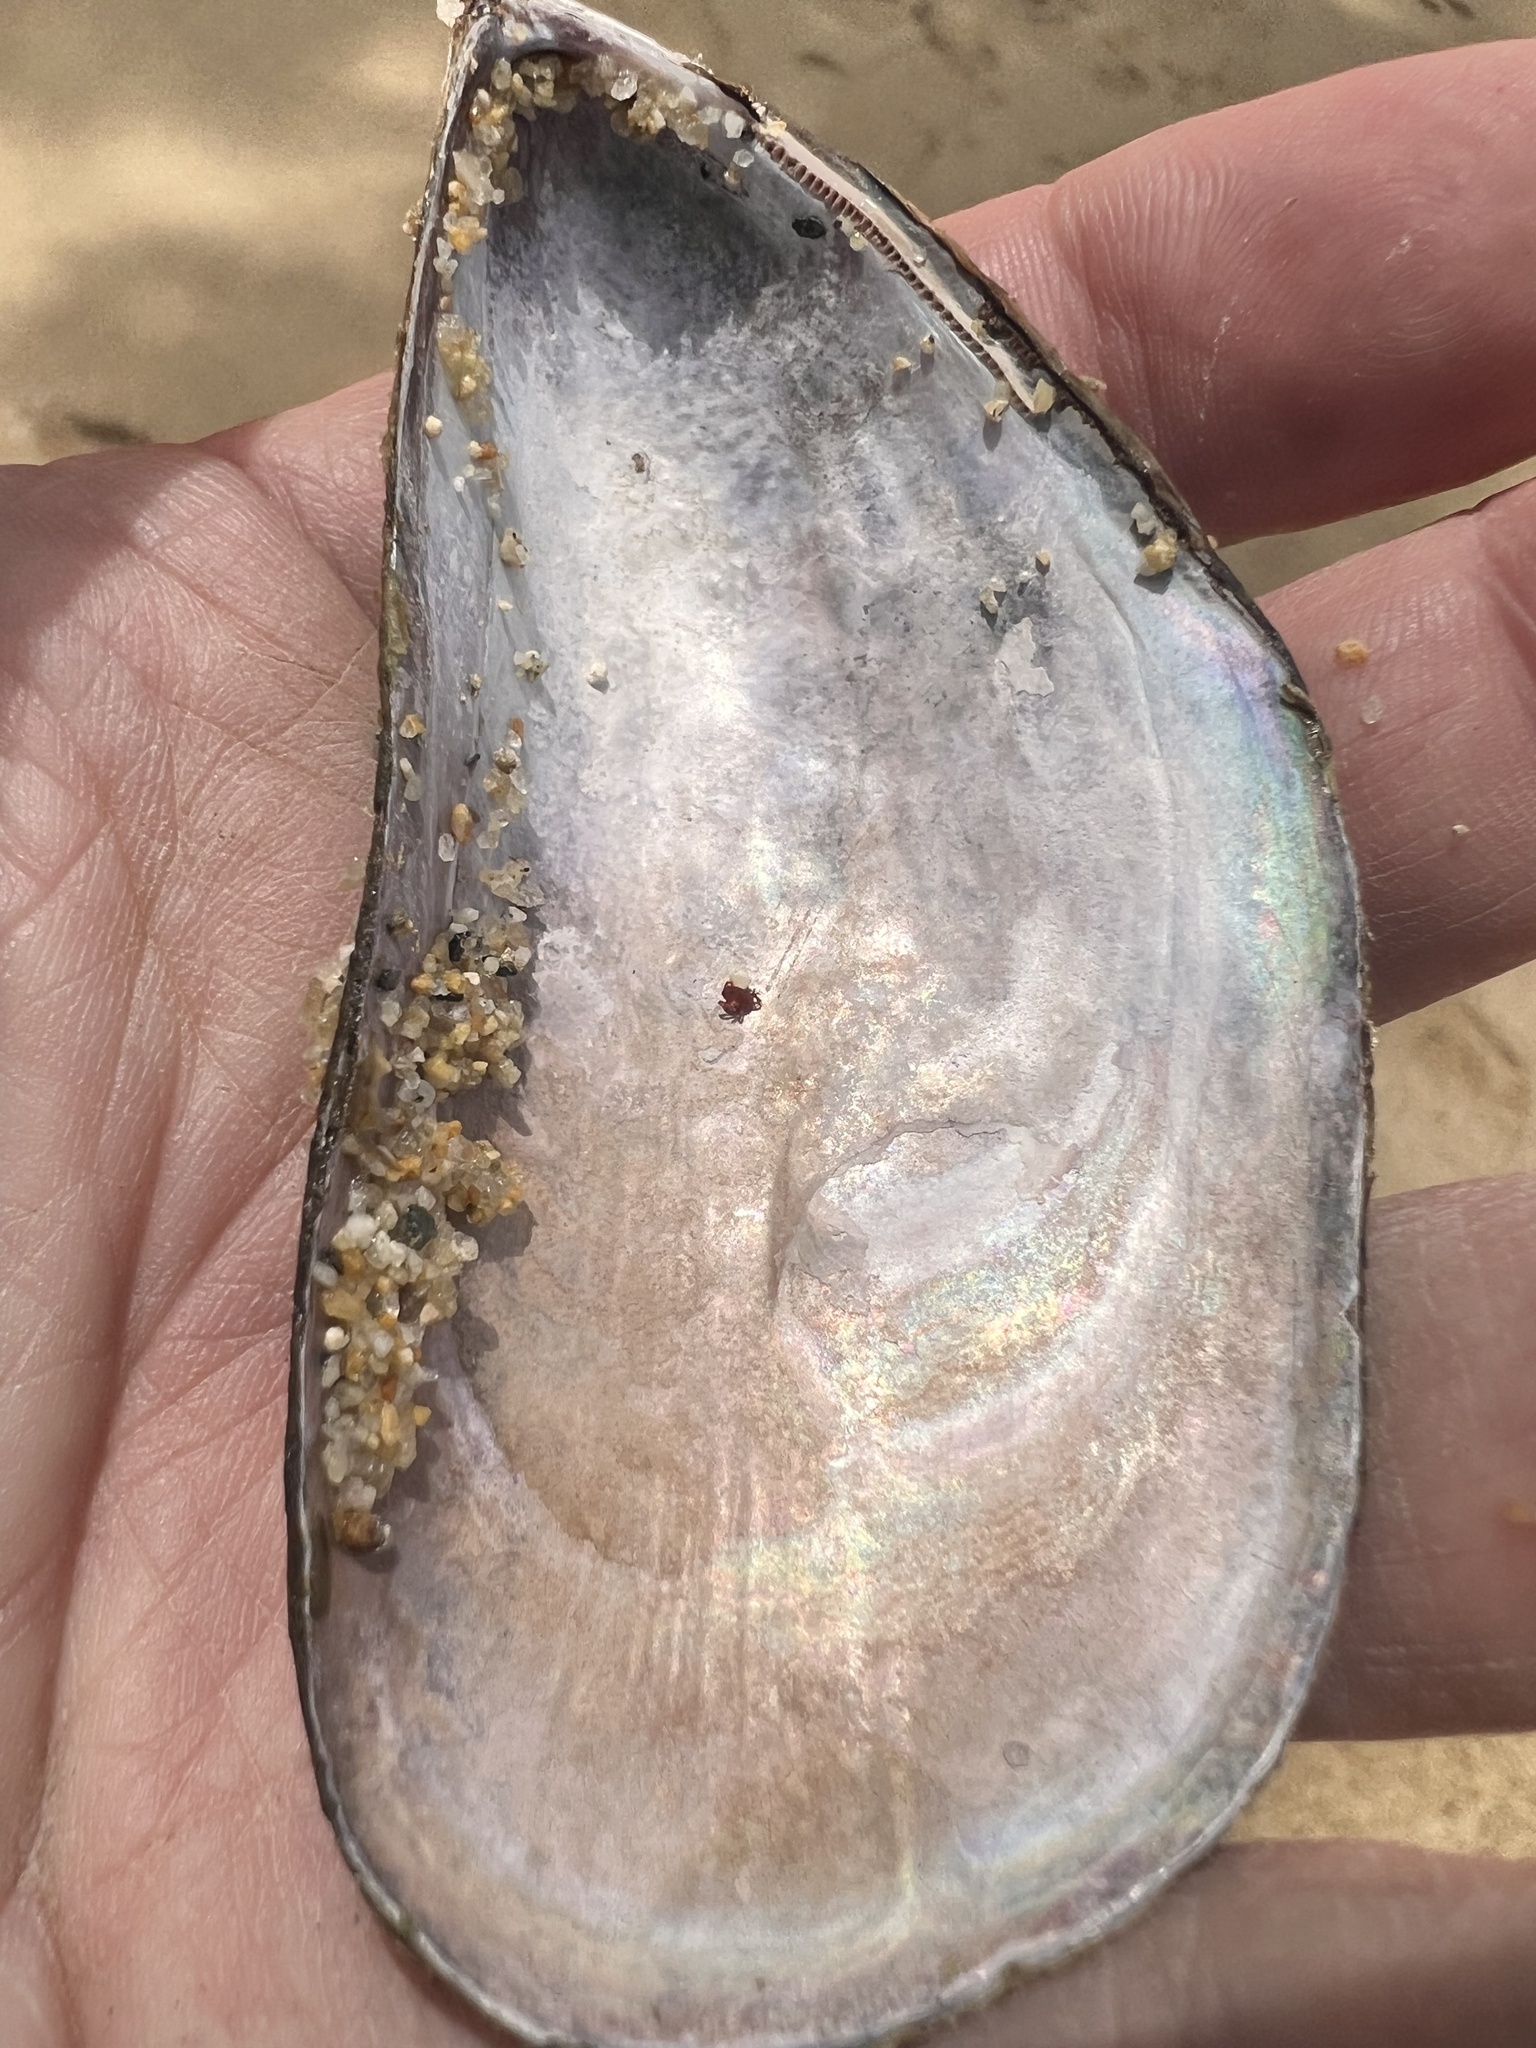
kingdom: Animalia
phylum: Mollusca
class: Bivalvia
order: Mytilida
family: Mytilidae
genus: Perna
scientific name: Perna canaliculus
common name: New zealand greenshelltm
